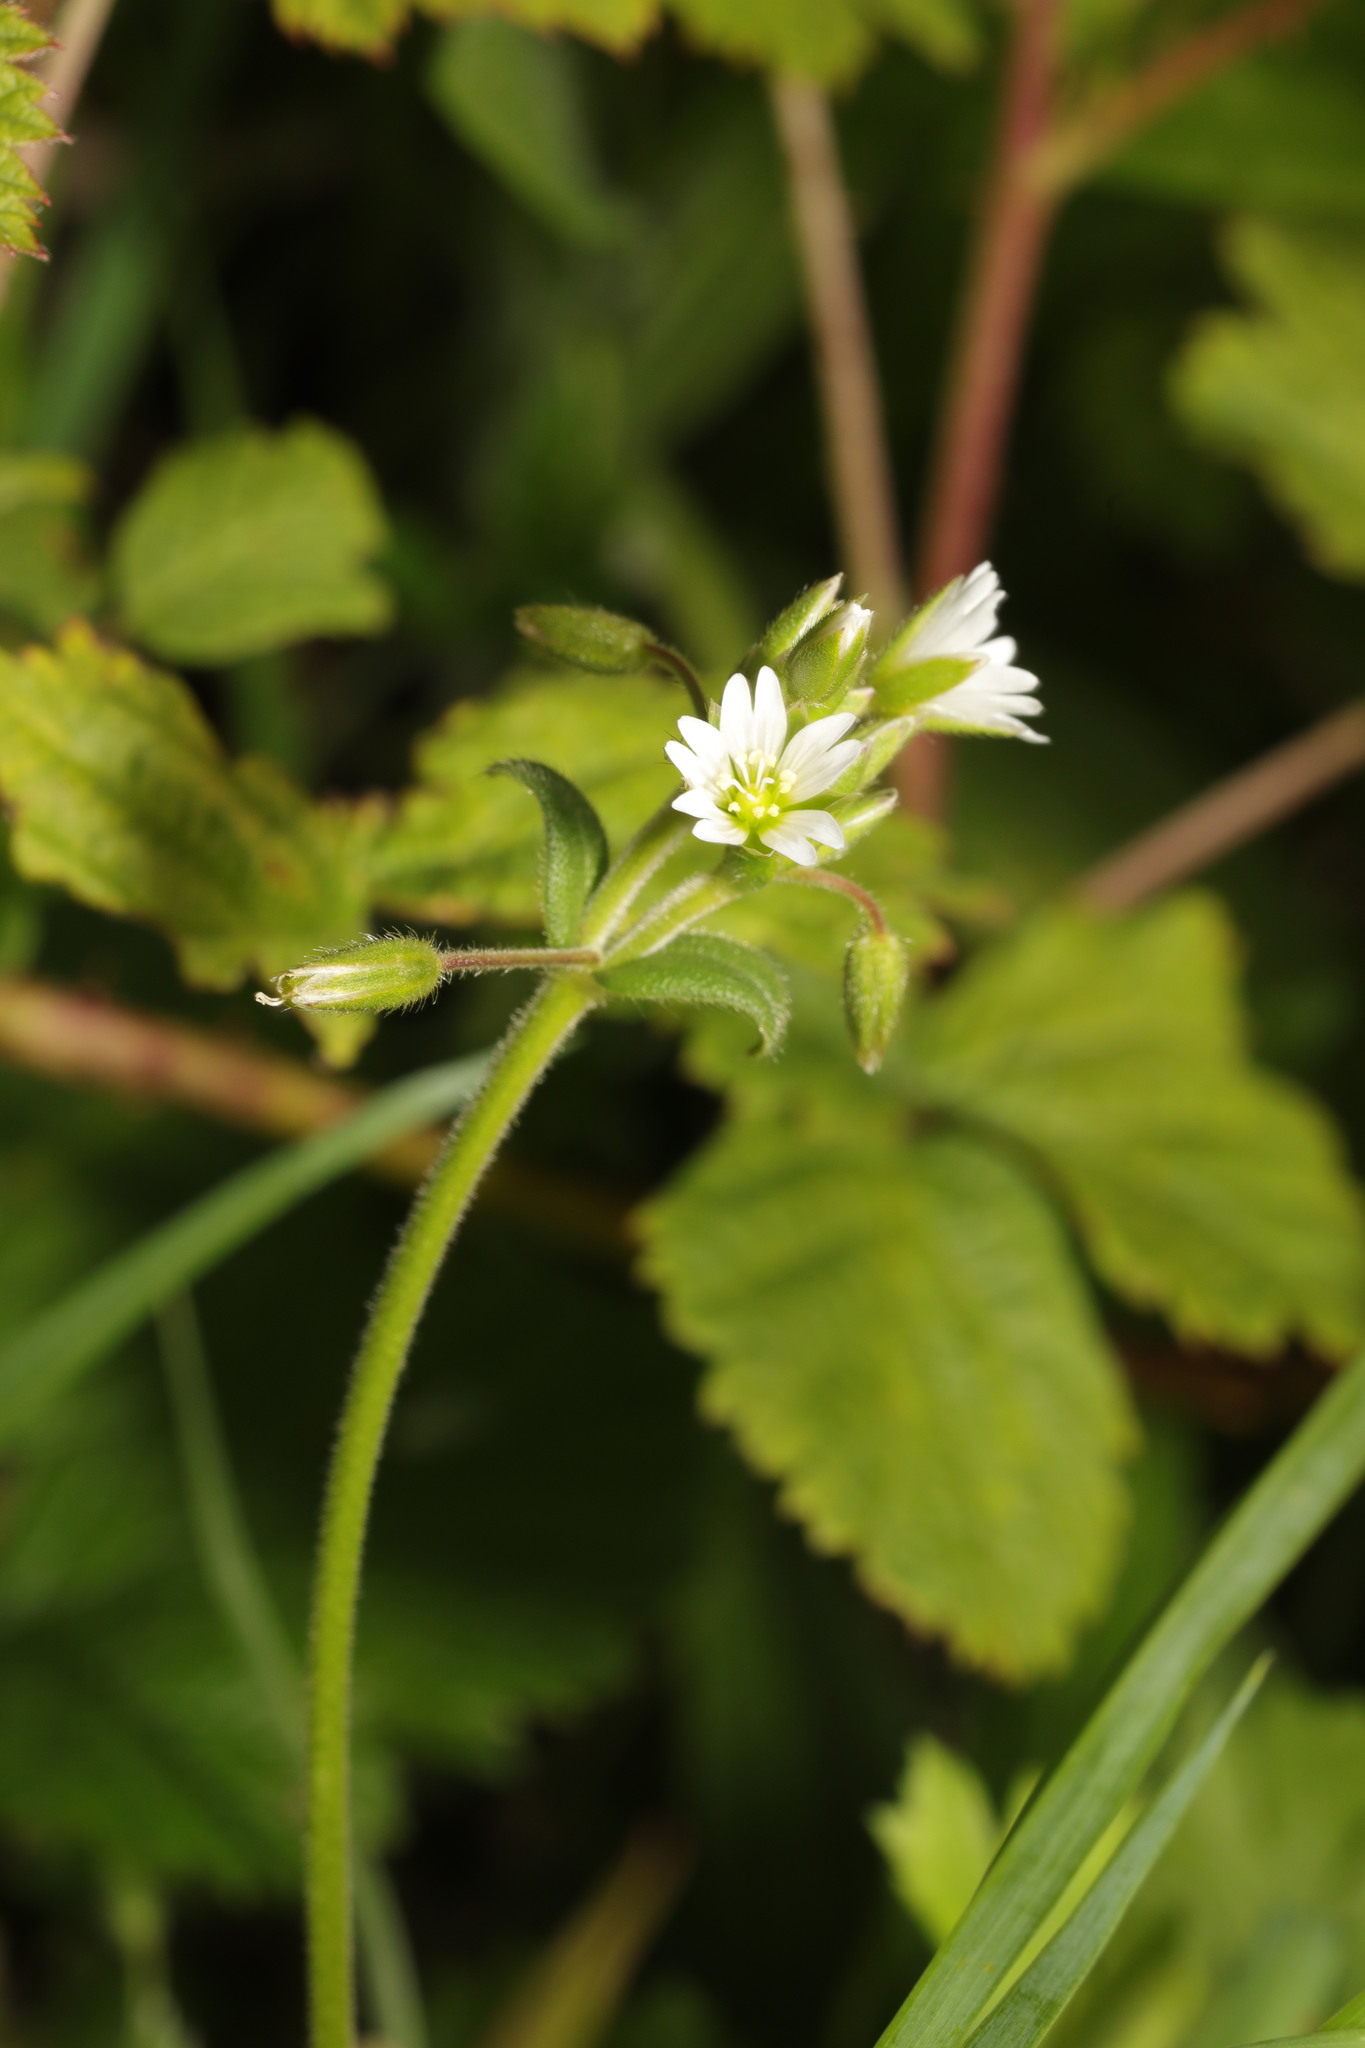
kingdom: Plantae
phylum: Tracheophyta
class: Magnoliopsida
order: Caryophyllales
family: Caryophyllaceae
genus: Cerastium
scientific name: Cerastium fontanum
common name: Common mouse-ear
